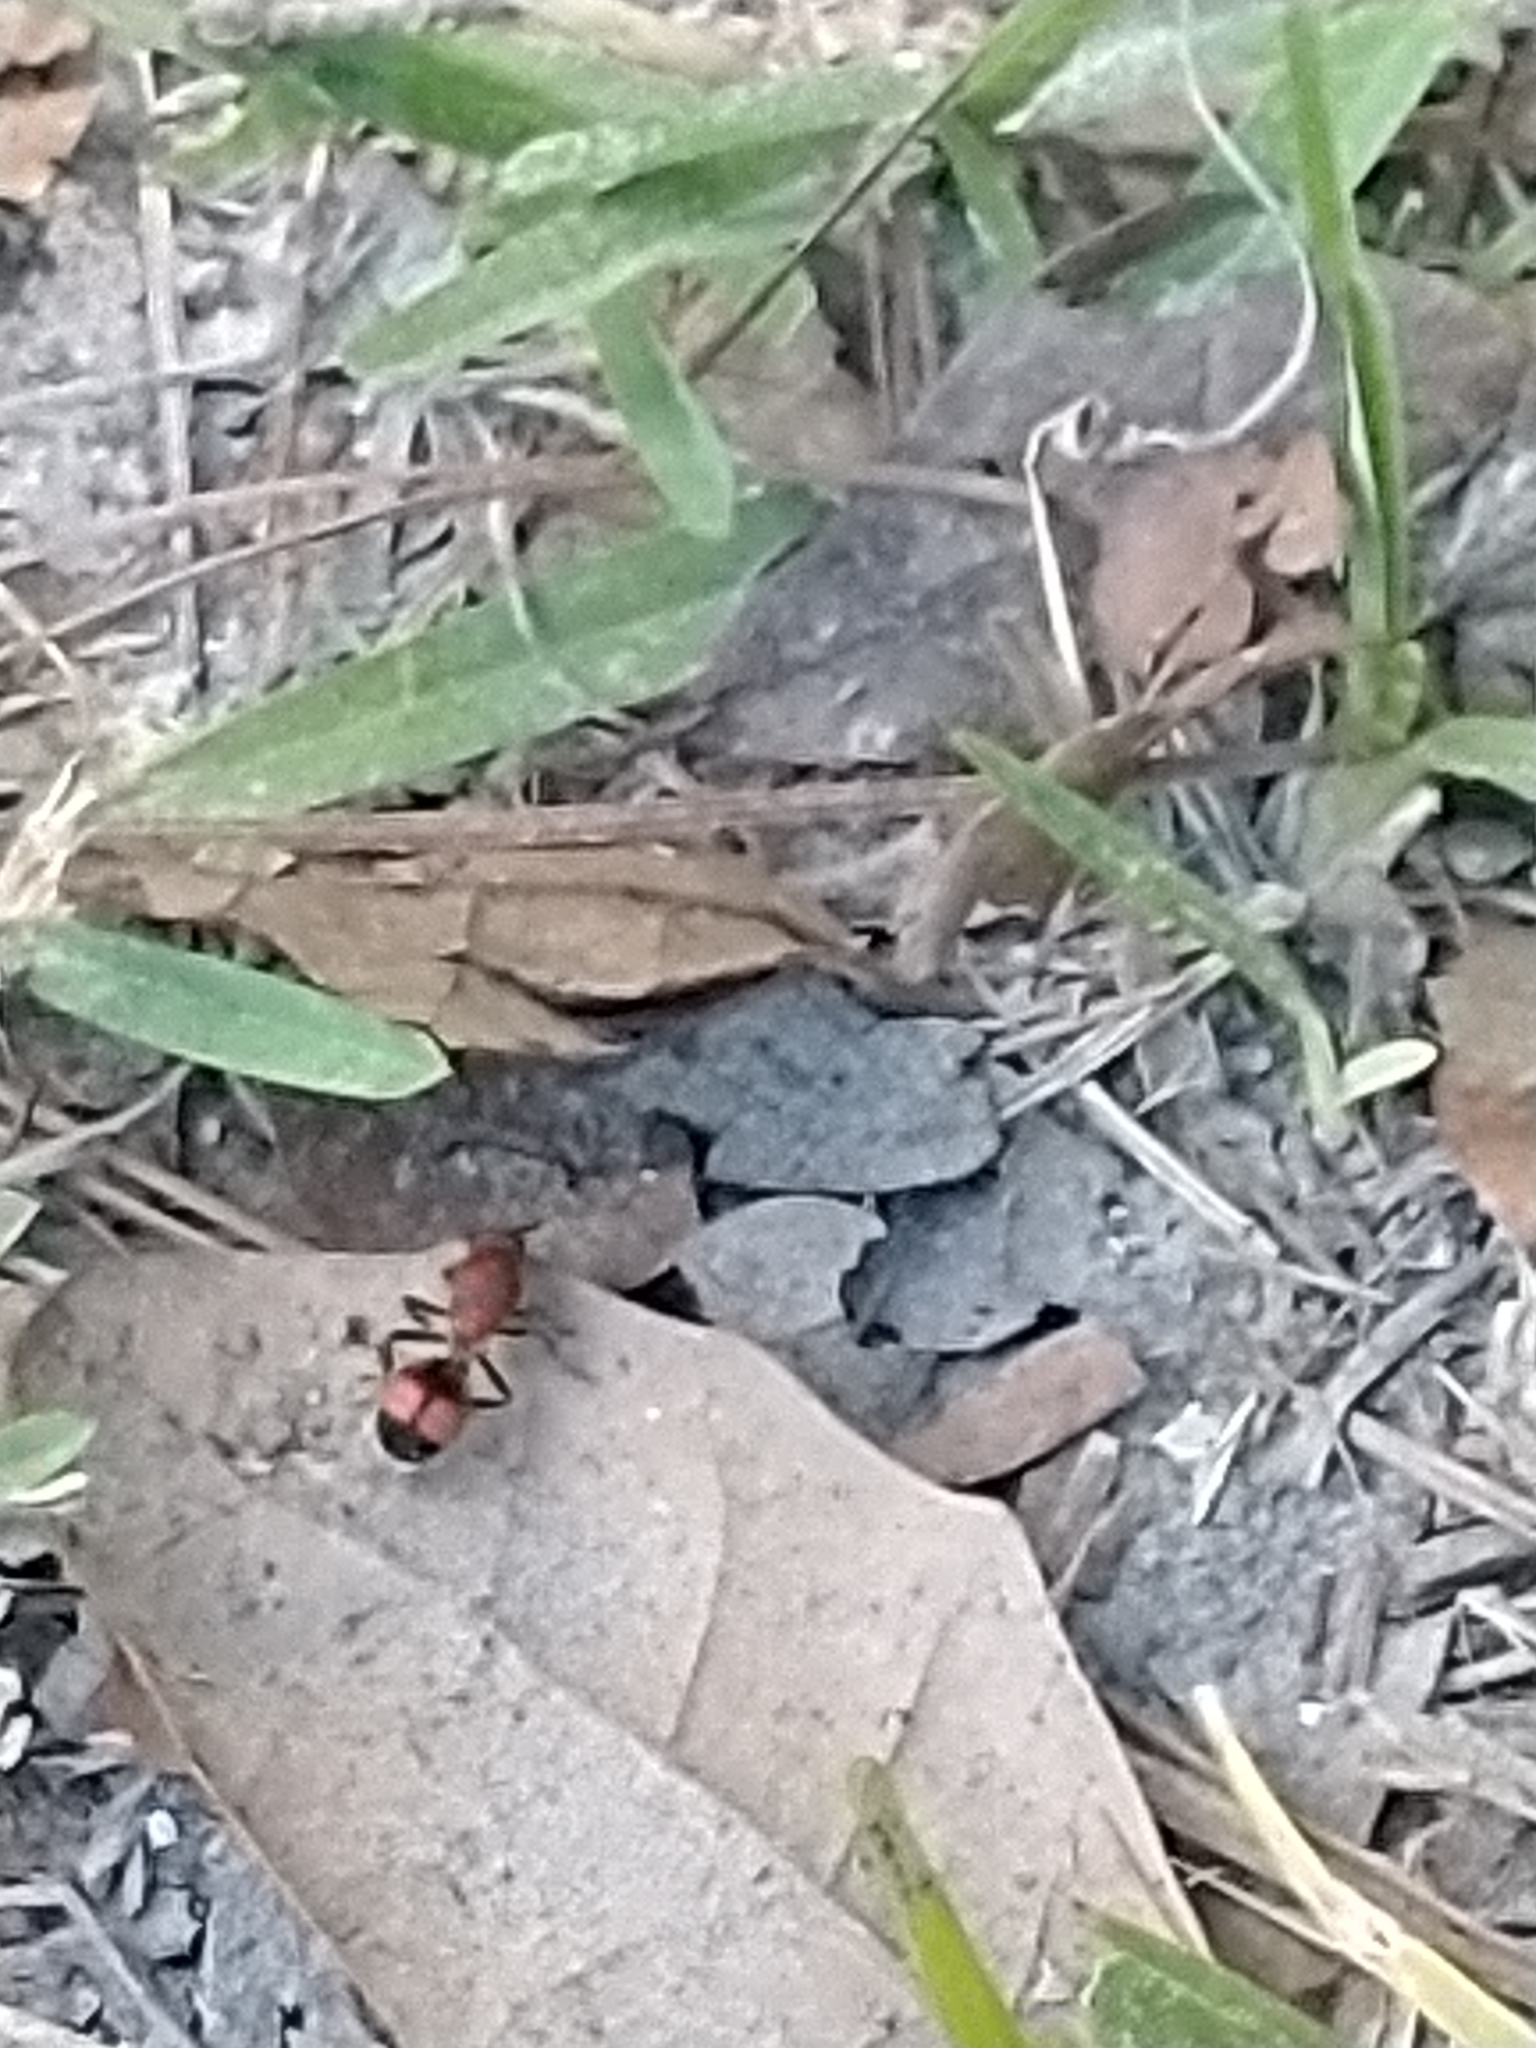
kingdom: Animalia
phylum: Arthropoda
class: Insecta
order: Hymenoptera
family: Mutillidae
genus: Dasymutilla
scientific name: Dasymutilla
